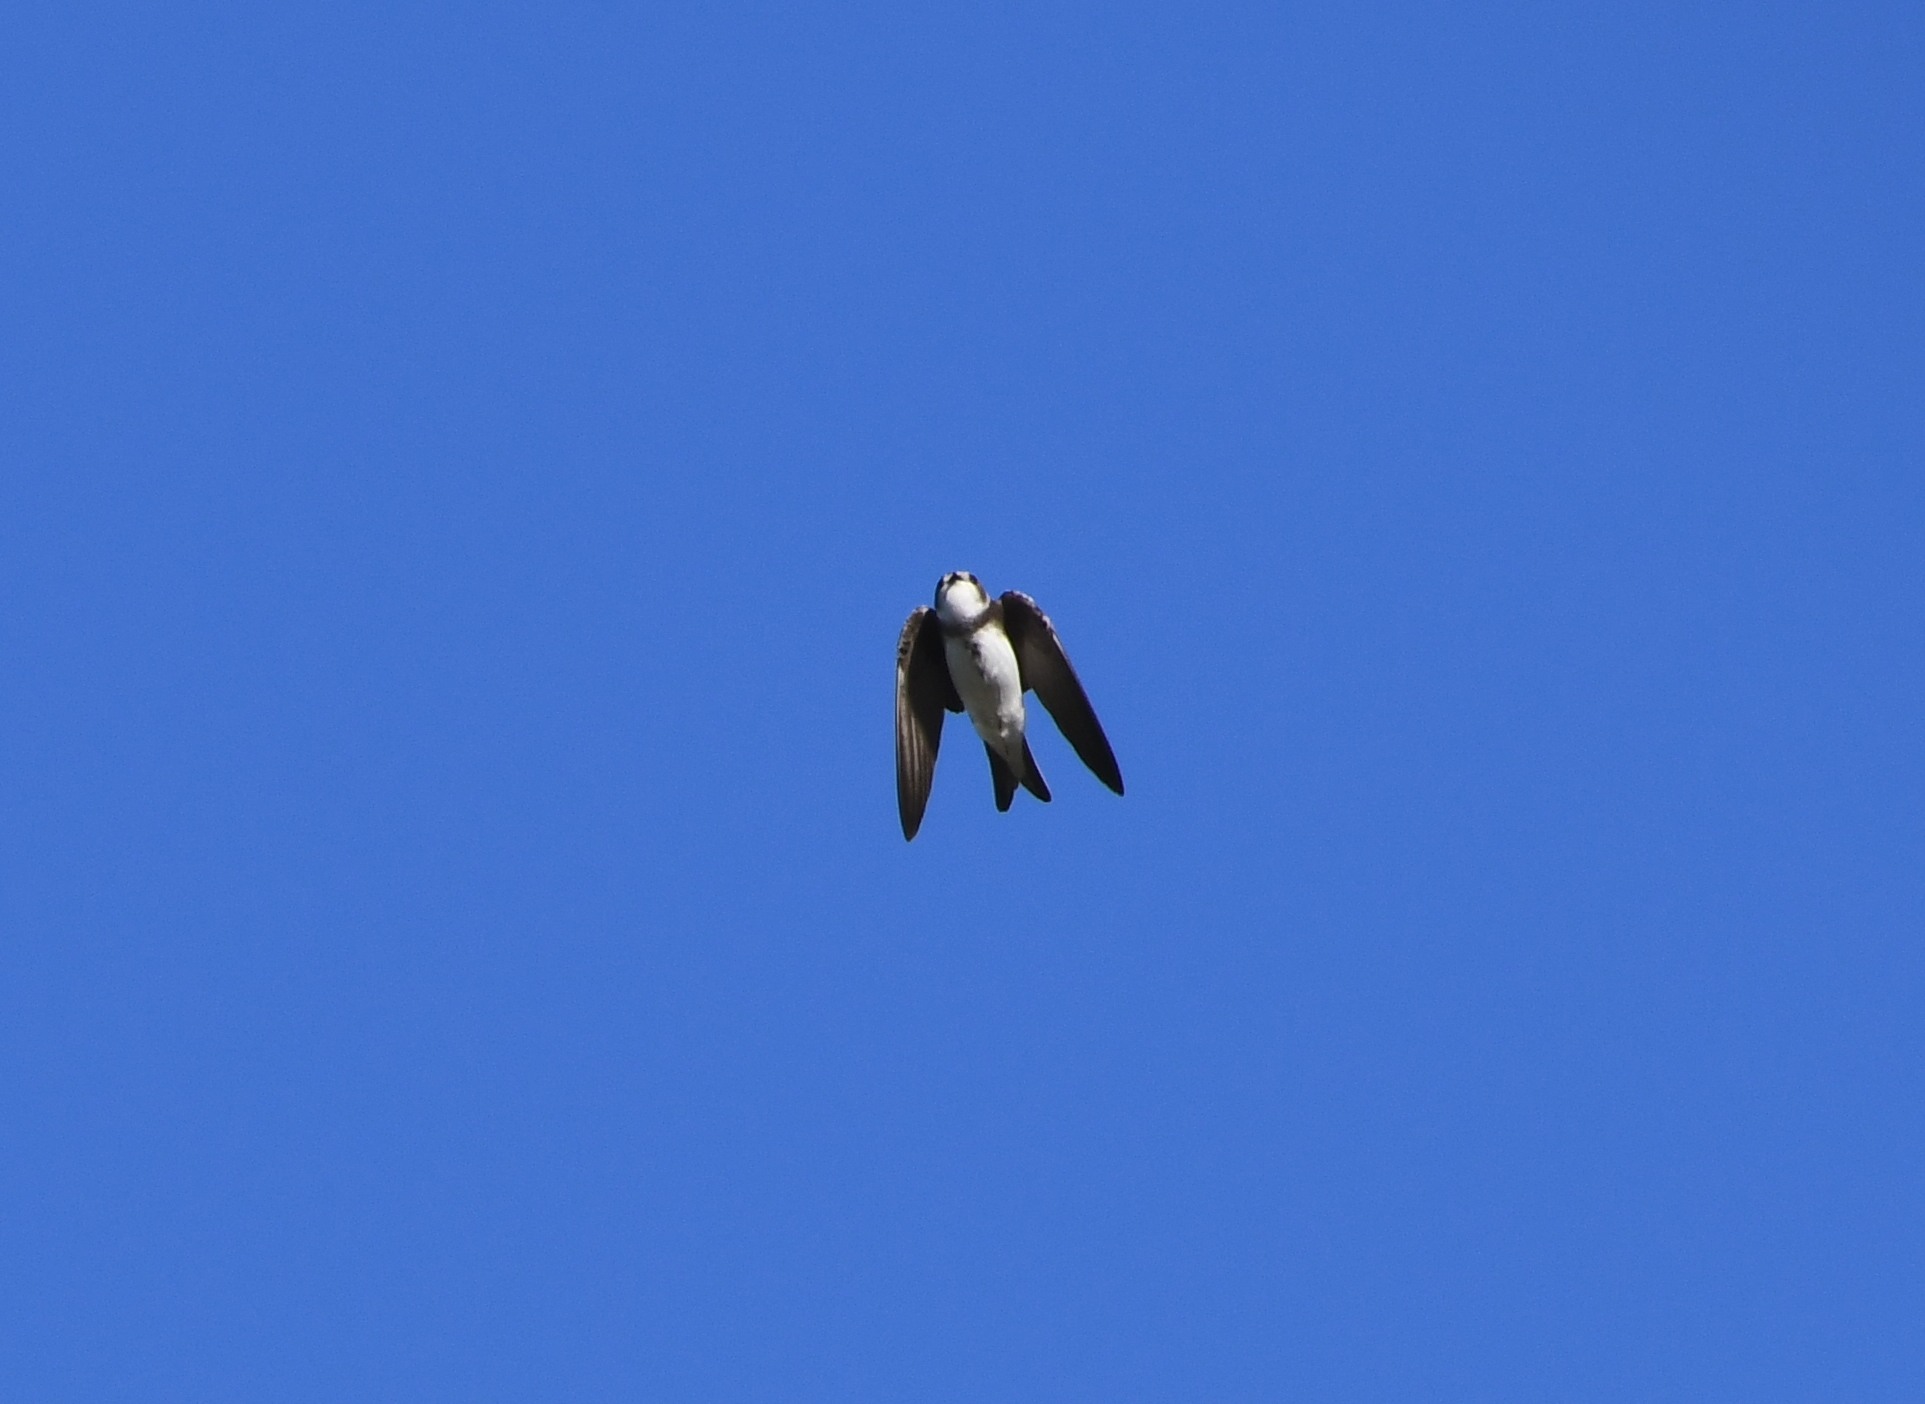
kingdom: Animalia
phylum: Chordata
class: Aves
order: Passeriformes
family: Hirundinidae
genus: Riparia
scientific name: Riparia riparia
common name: Sand martin
